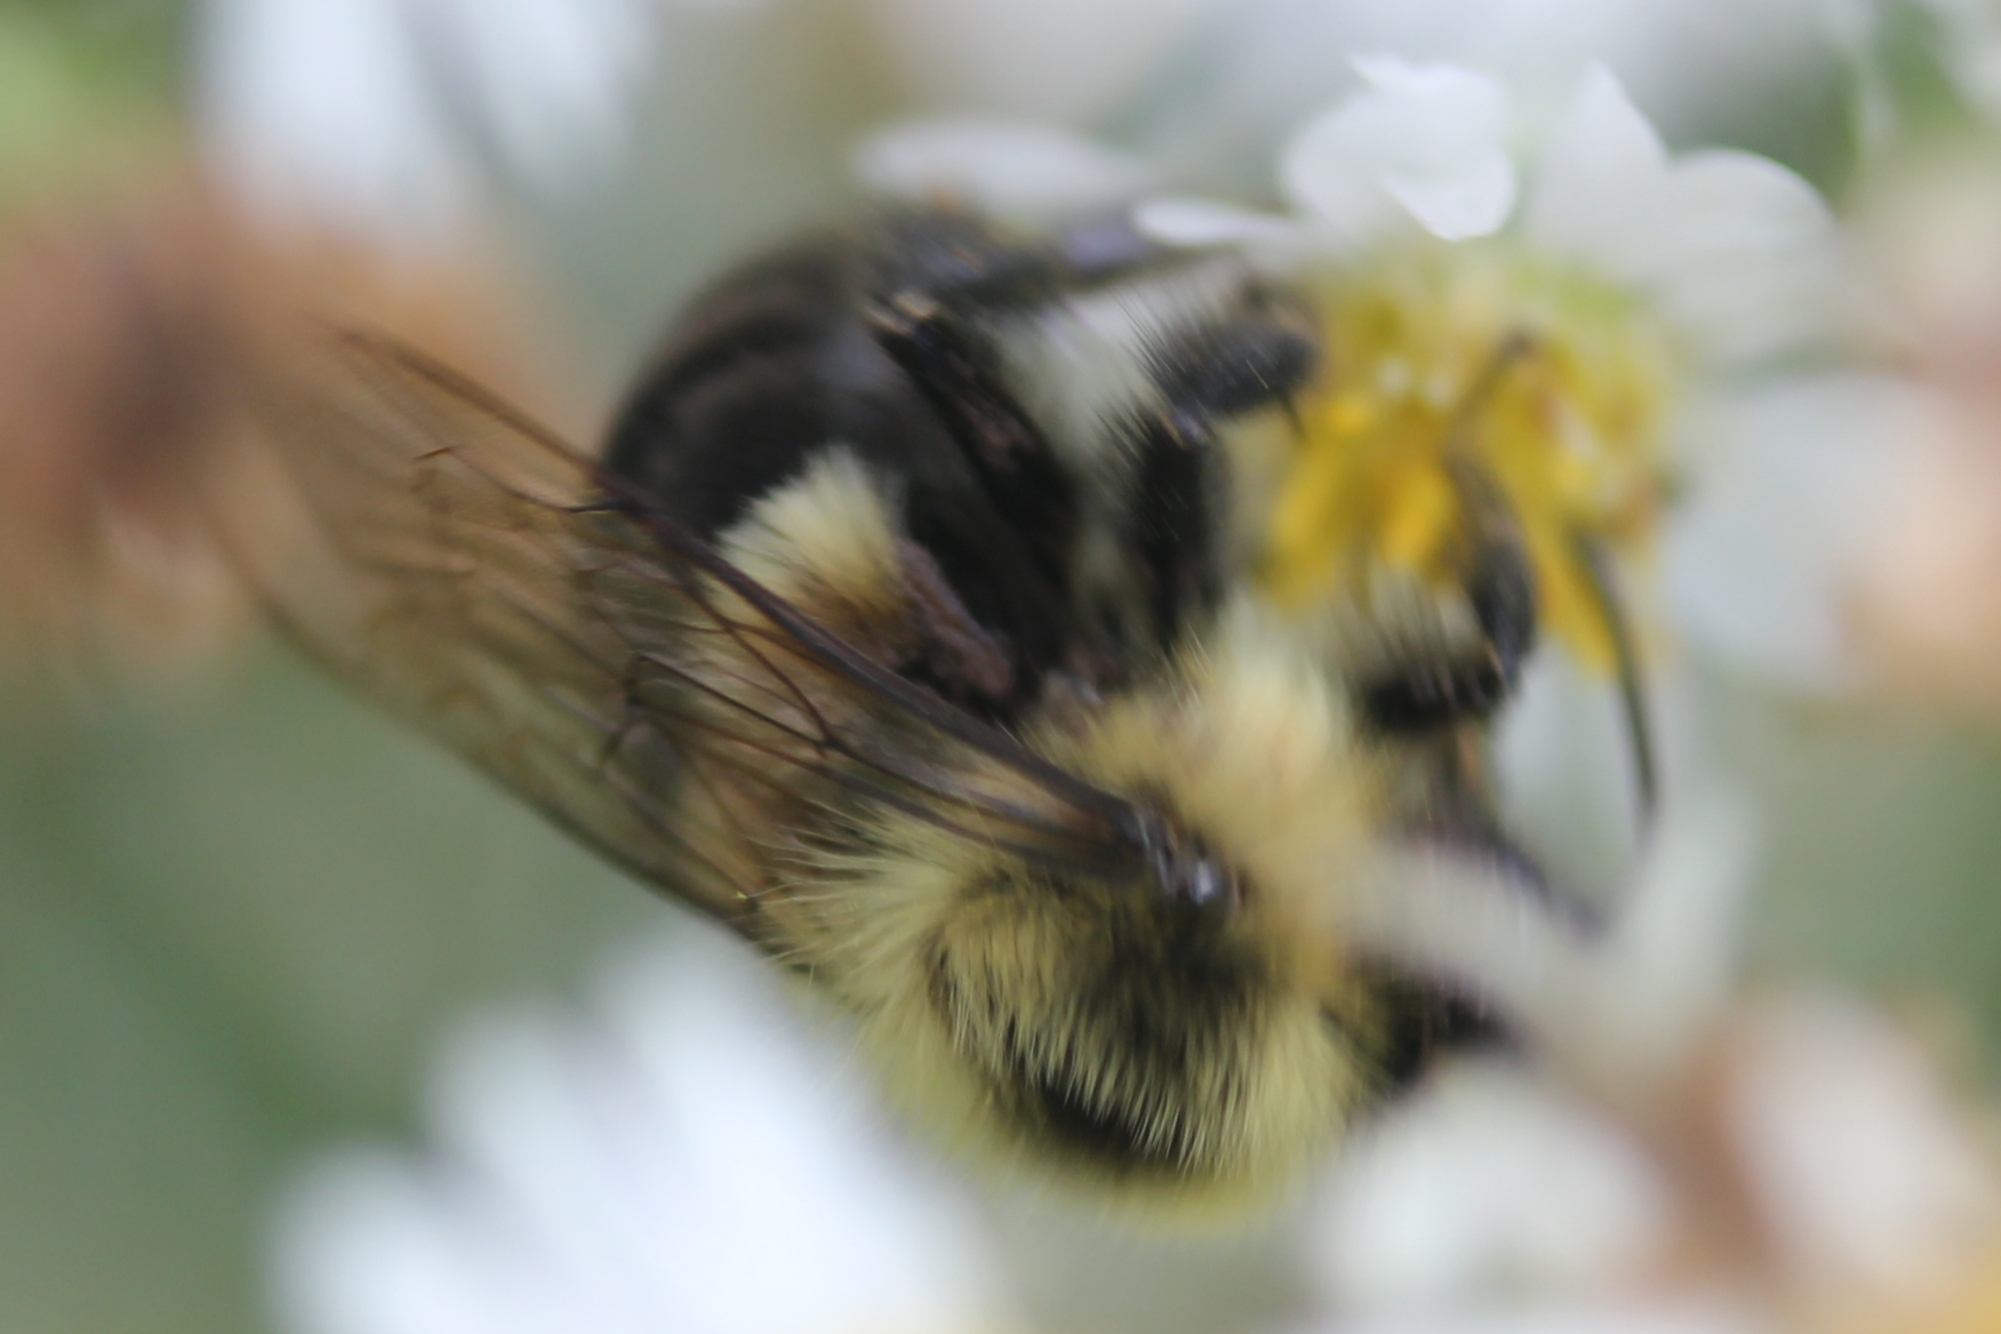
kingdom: Animalia
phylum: Arthropoda
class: Insecta
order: Hymenoptera
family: Apidae
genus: Bombus
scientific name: Bombus impatiens
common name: Common eastern bumble bee
